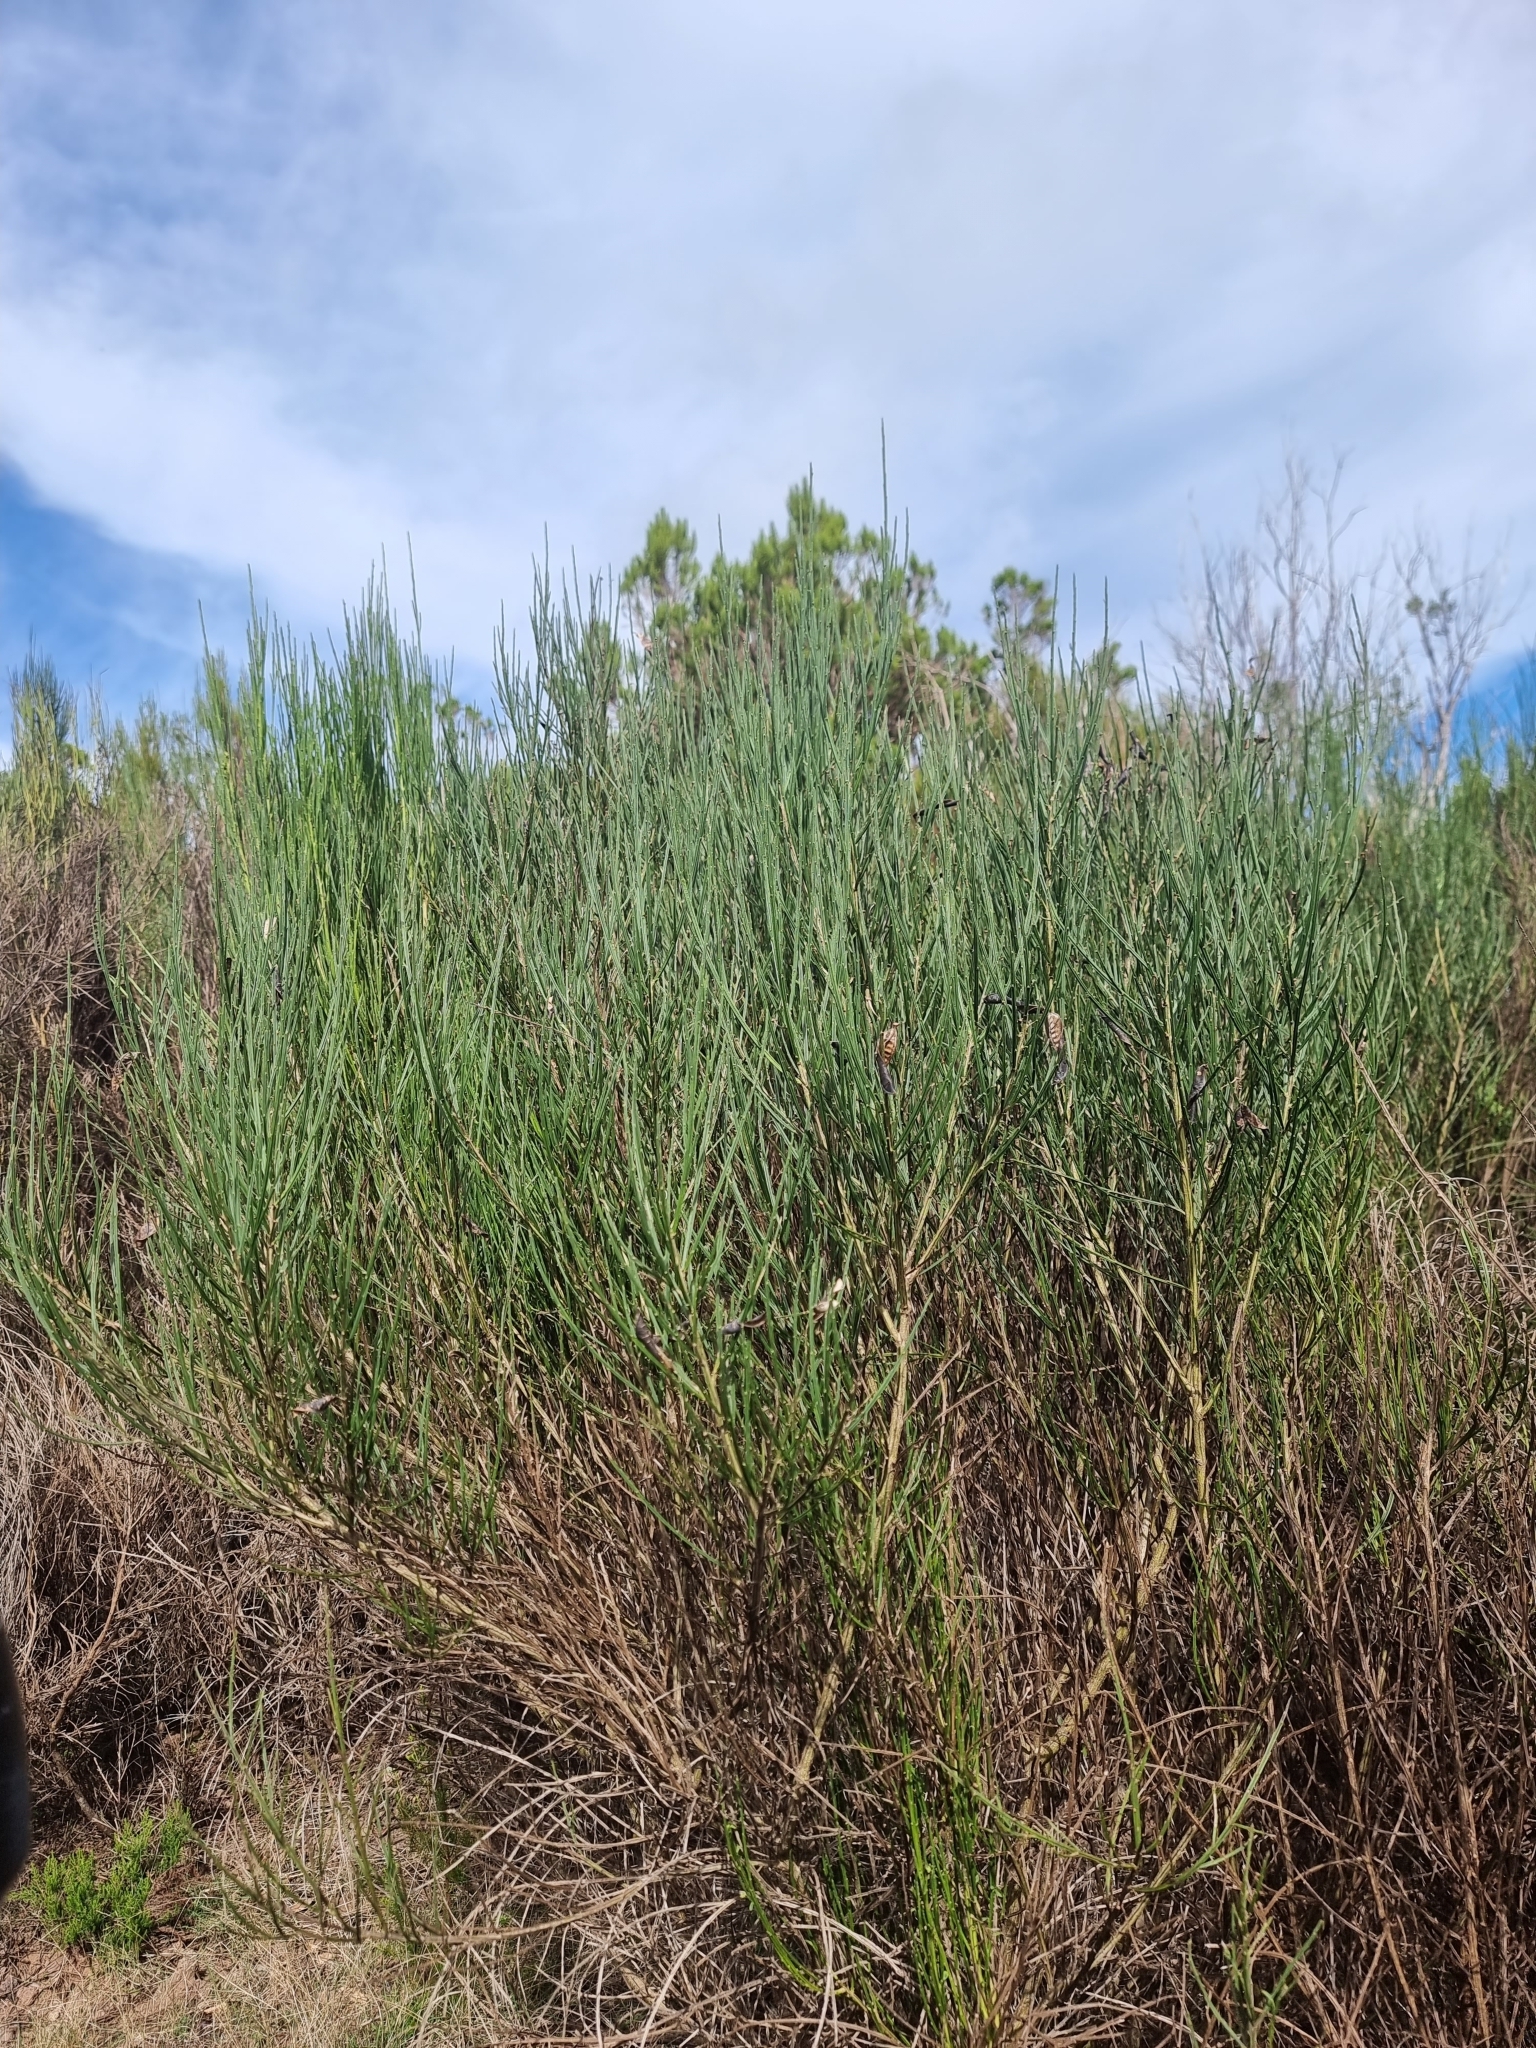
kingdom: Plantae
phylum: Tracheophyta
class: Magnoliopsida
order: Fabales
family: Fabaceae
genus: Cytisus
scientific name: Cytisus scoparius
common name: Scotch broom
